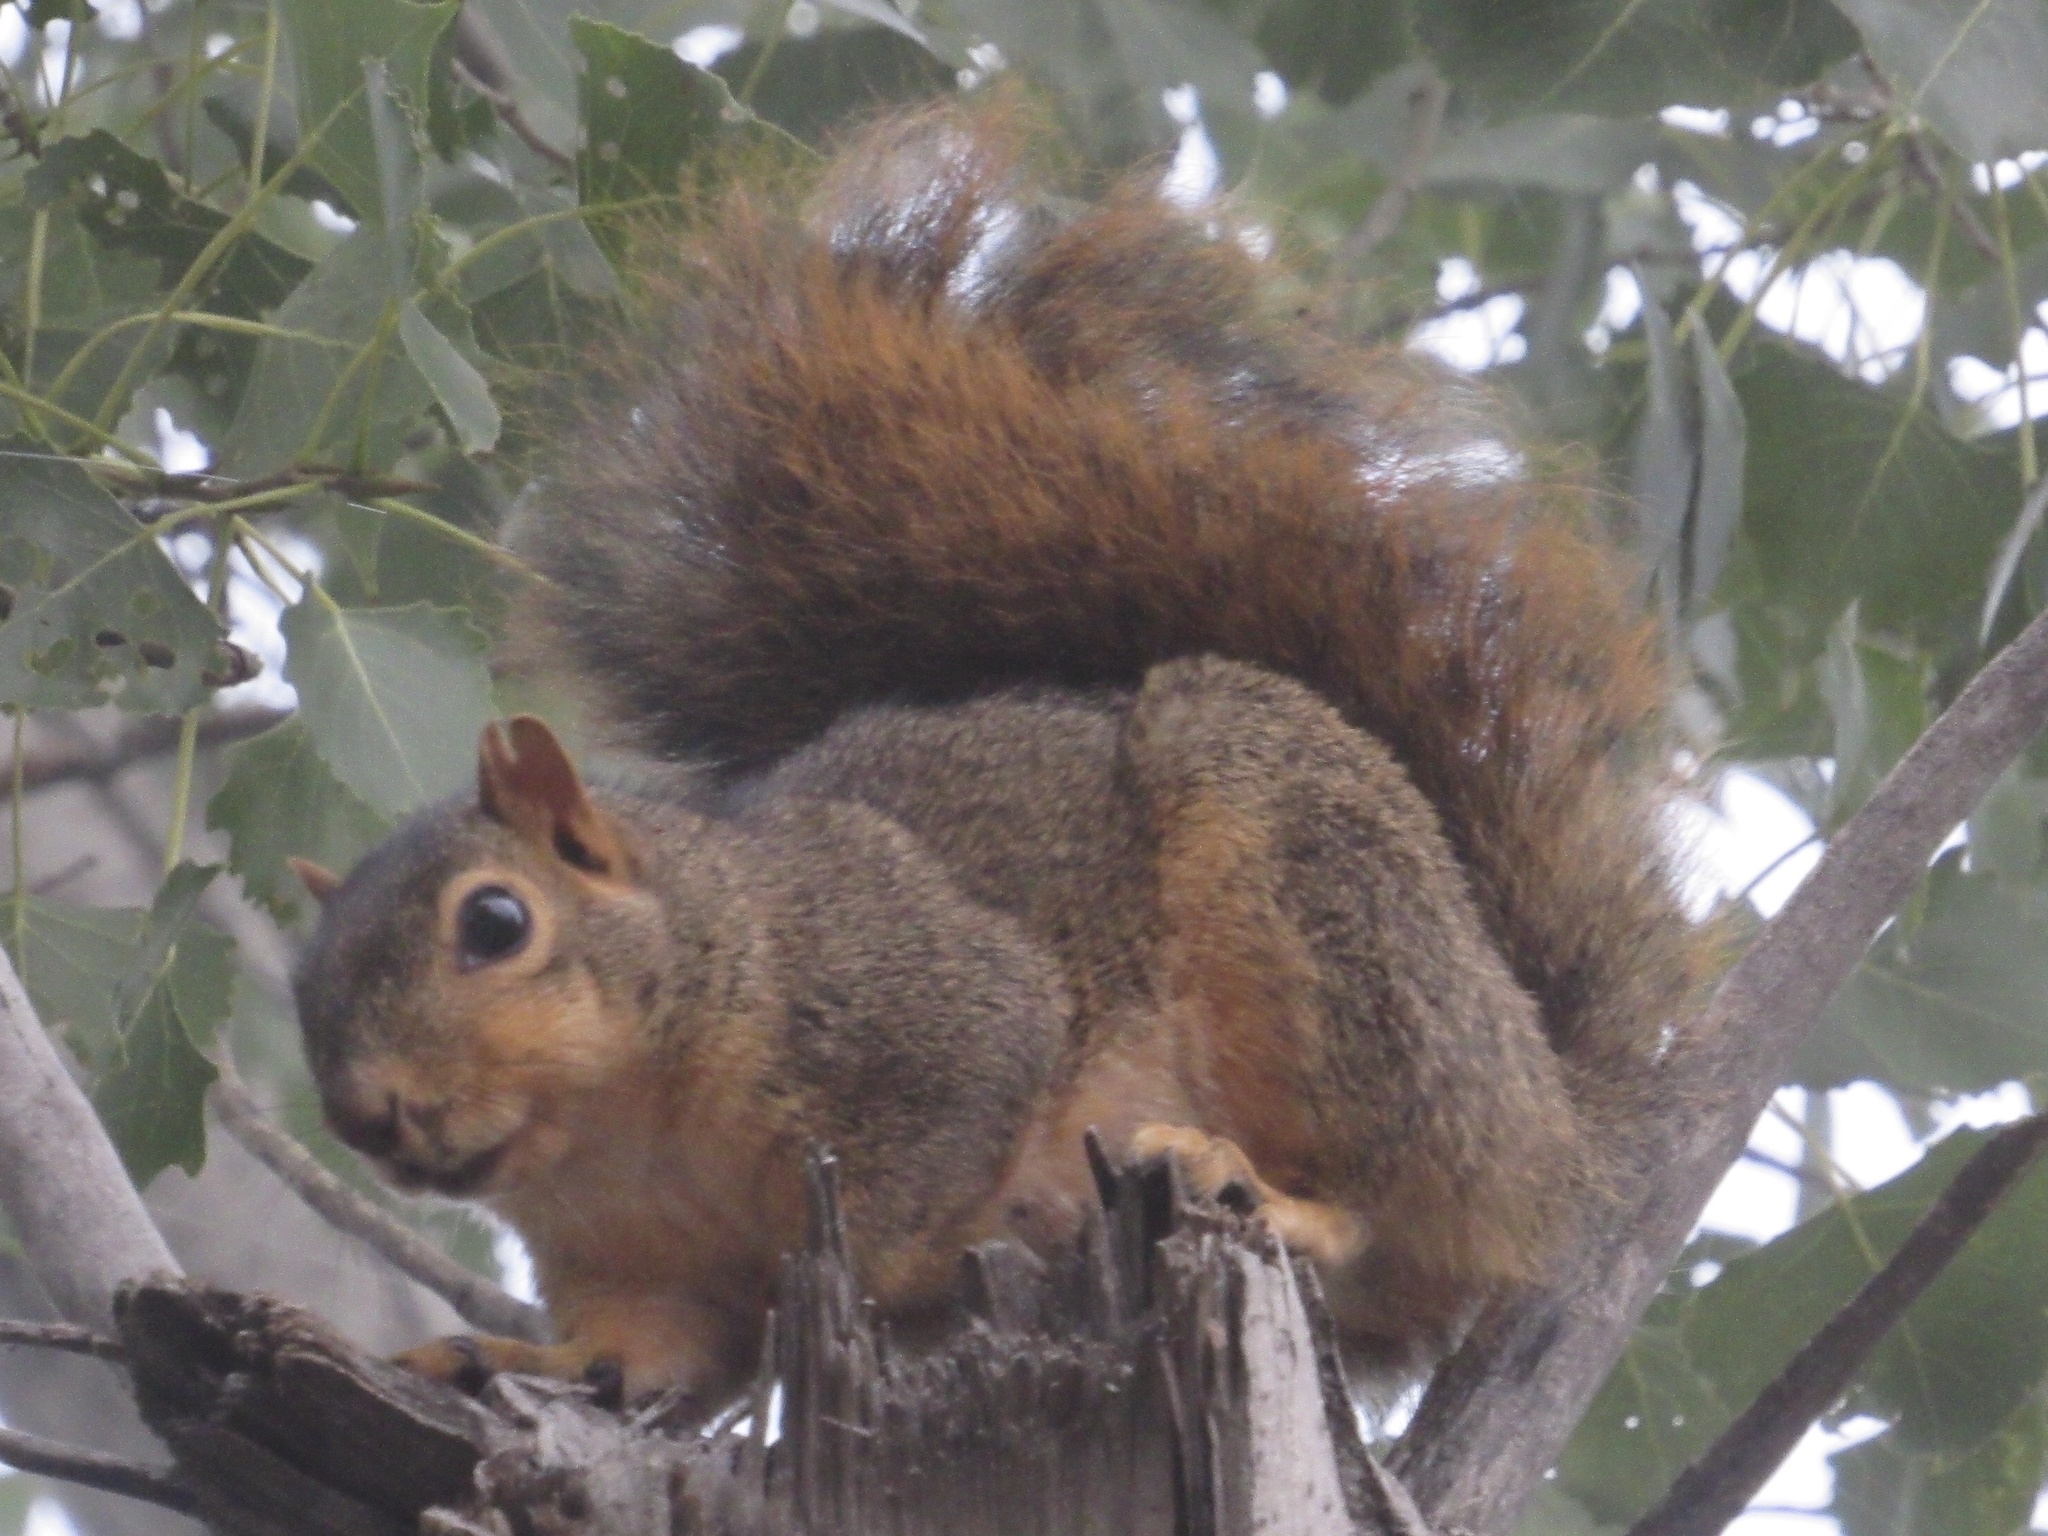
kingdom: Animalia
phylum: Chordata
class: Mammalia
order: Rodentia
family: Sciuridae
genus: Sciurus
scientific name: Sciurus niger
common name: Fox squirrel
